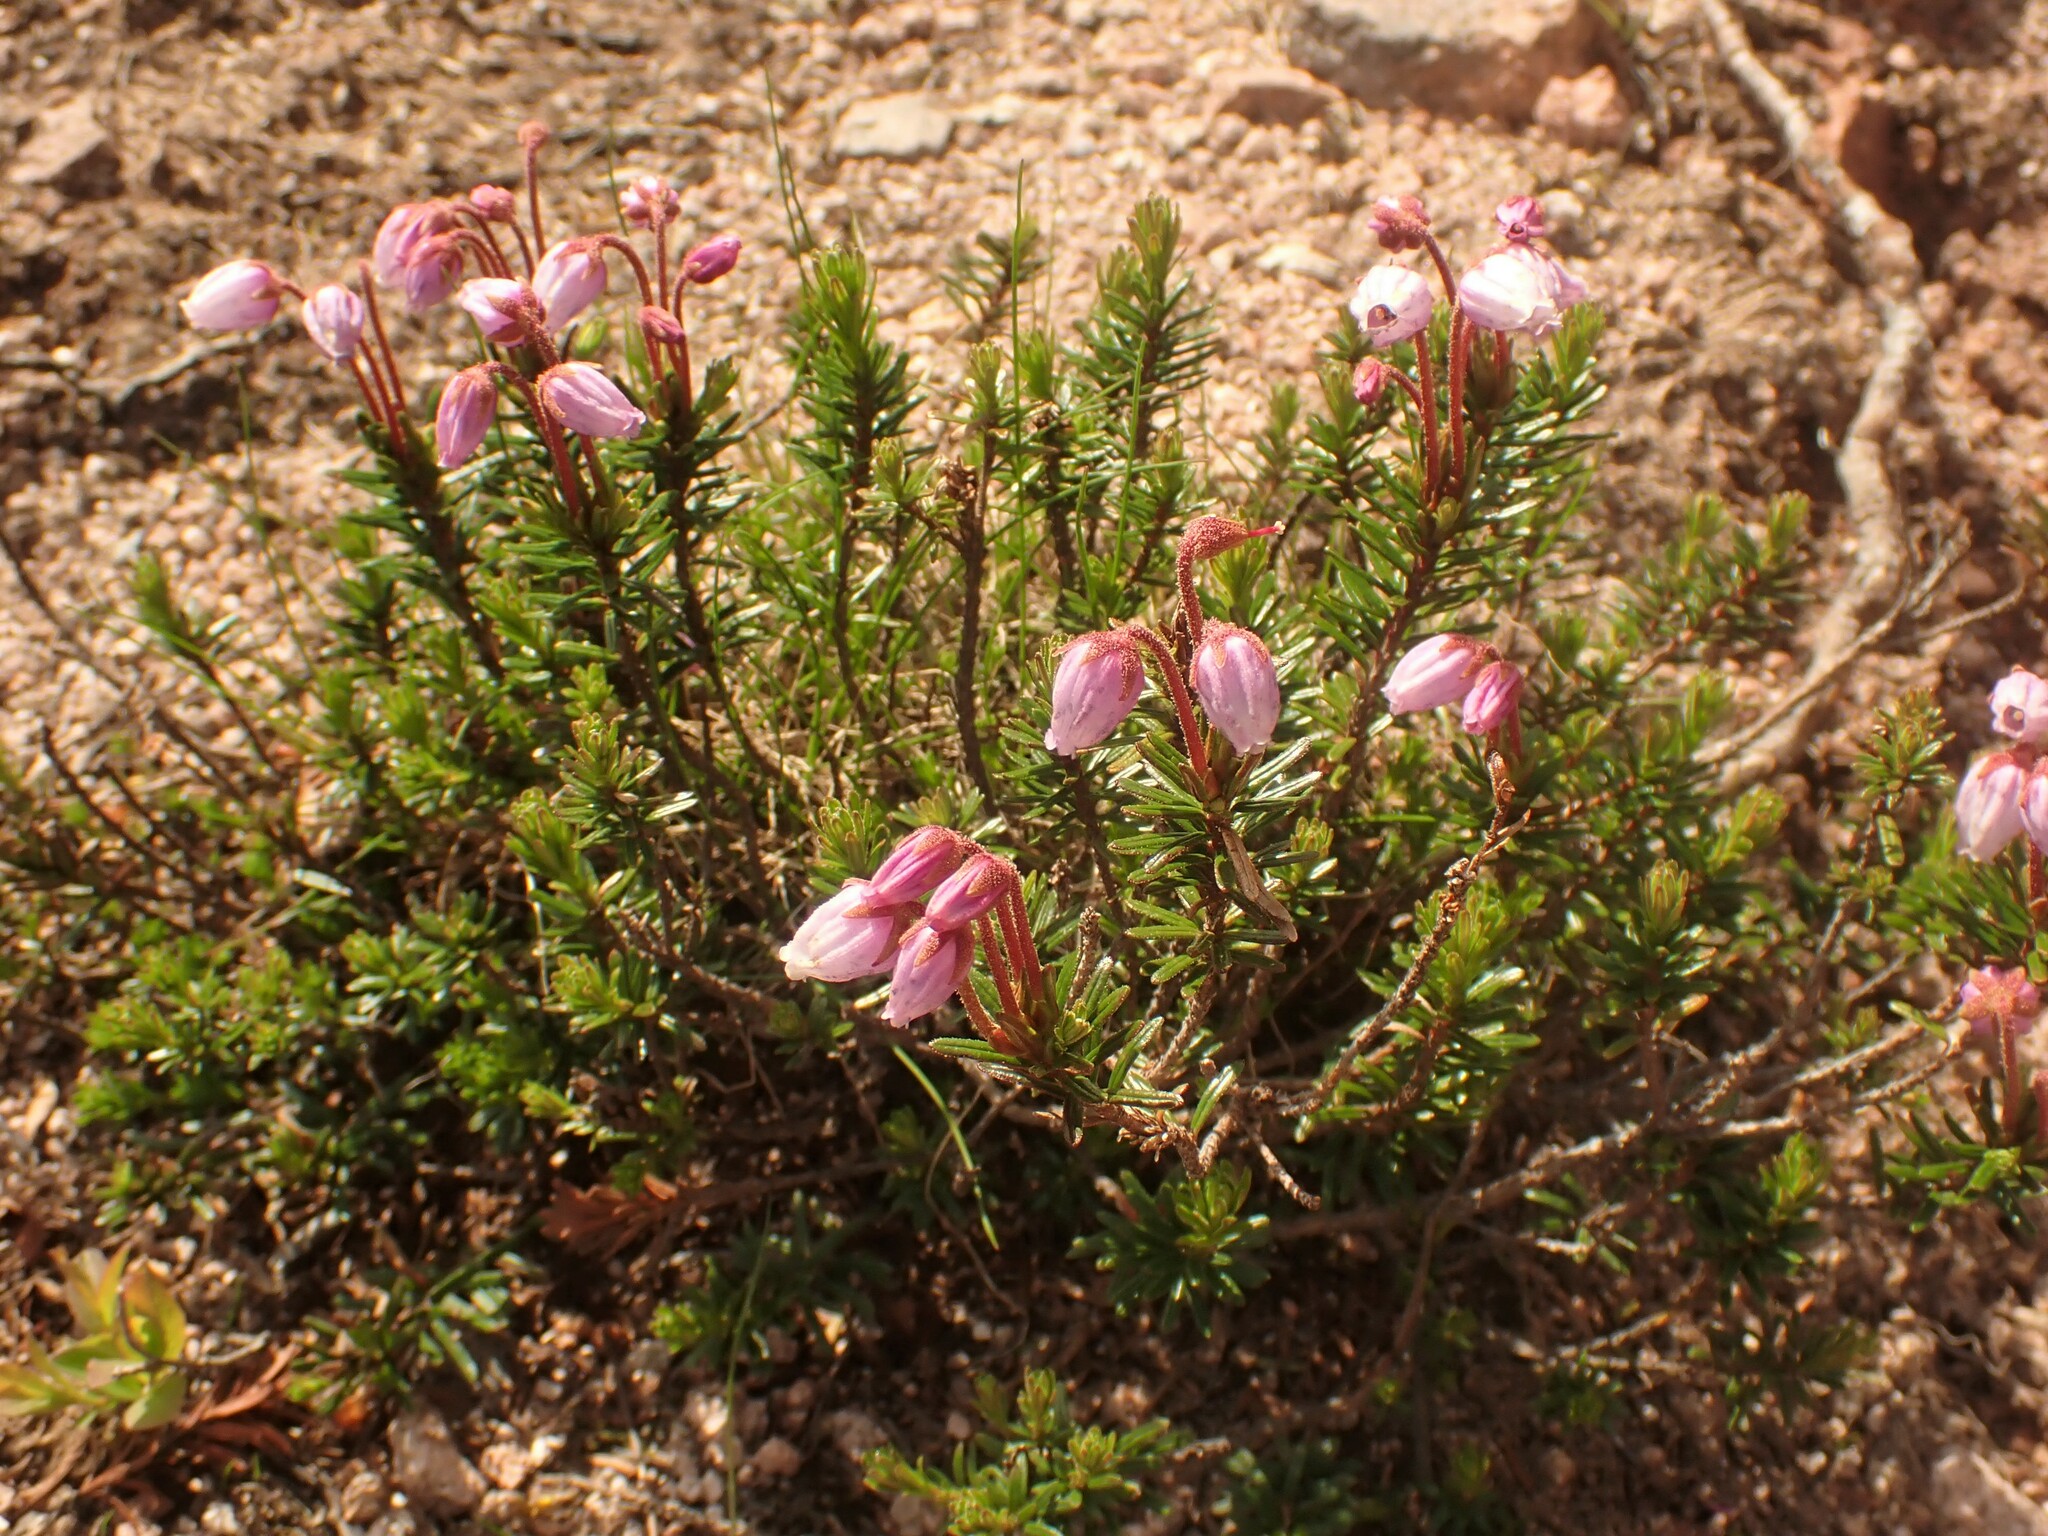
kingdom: Plantae
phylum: Tracheophyta
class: Magnoliopsida
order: Ericales
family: Ericaceae
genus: Phyllodoce
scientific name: Phyllodoce caerulea
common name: Blue heath
